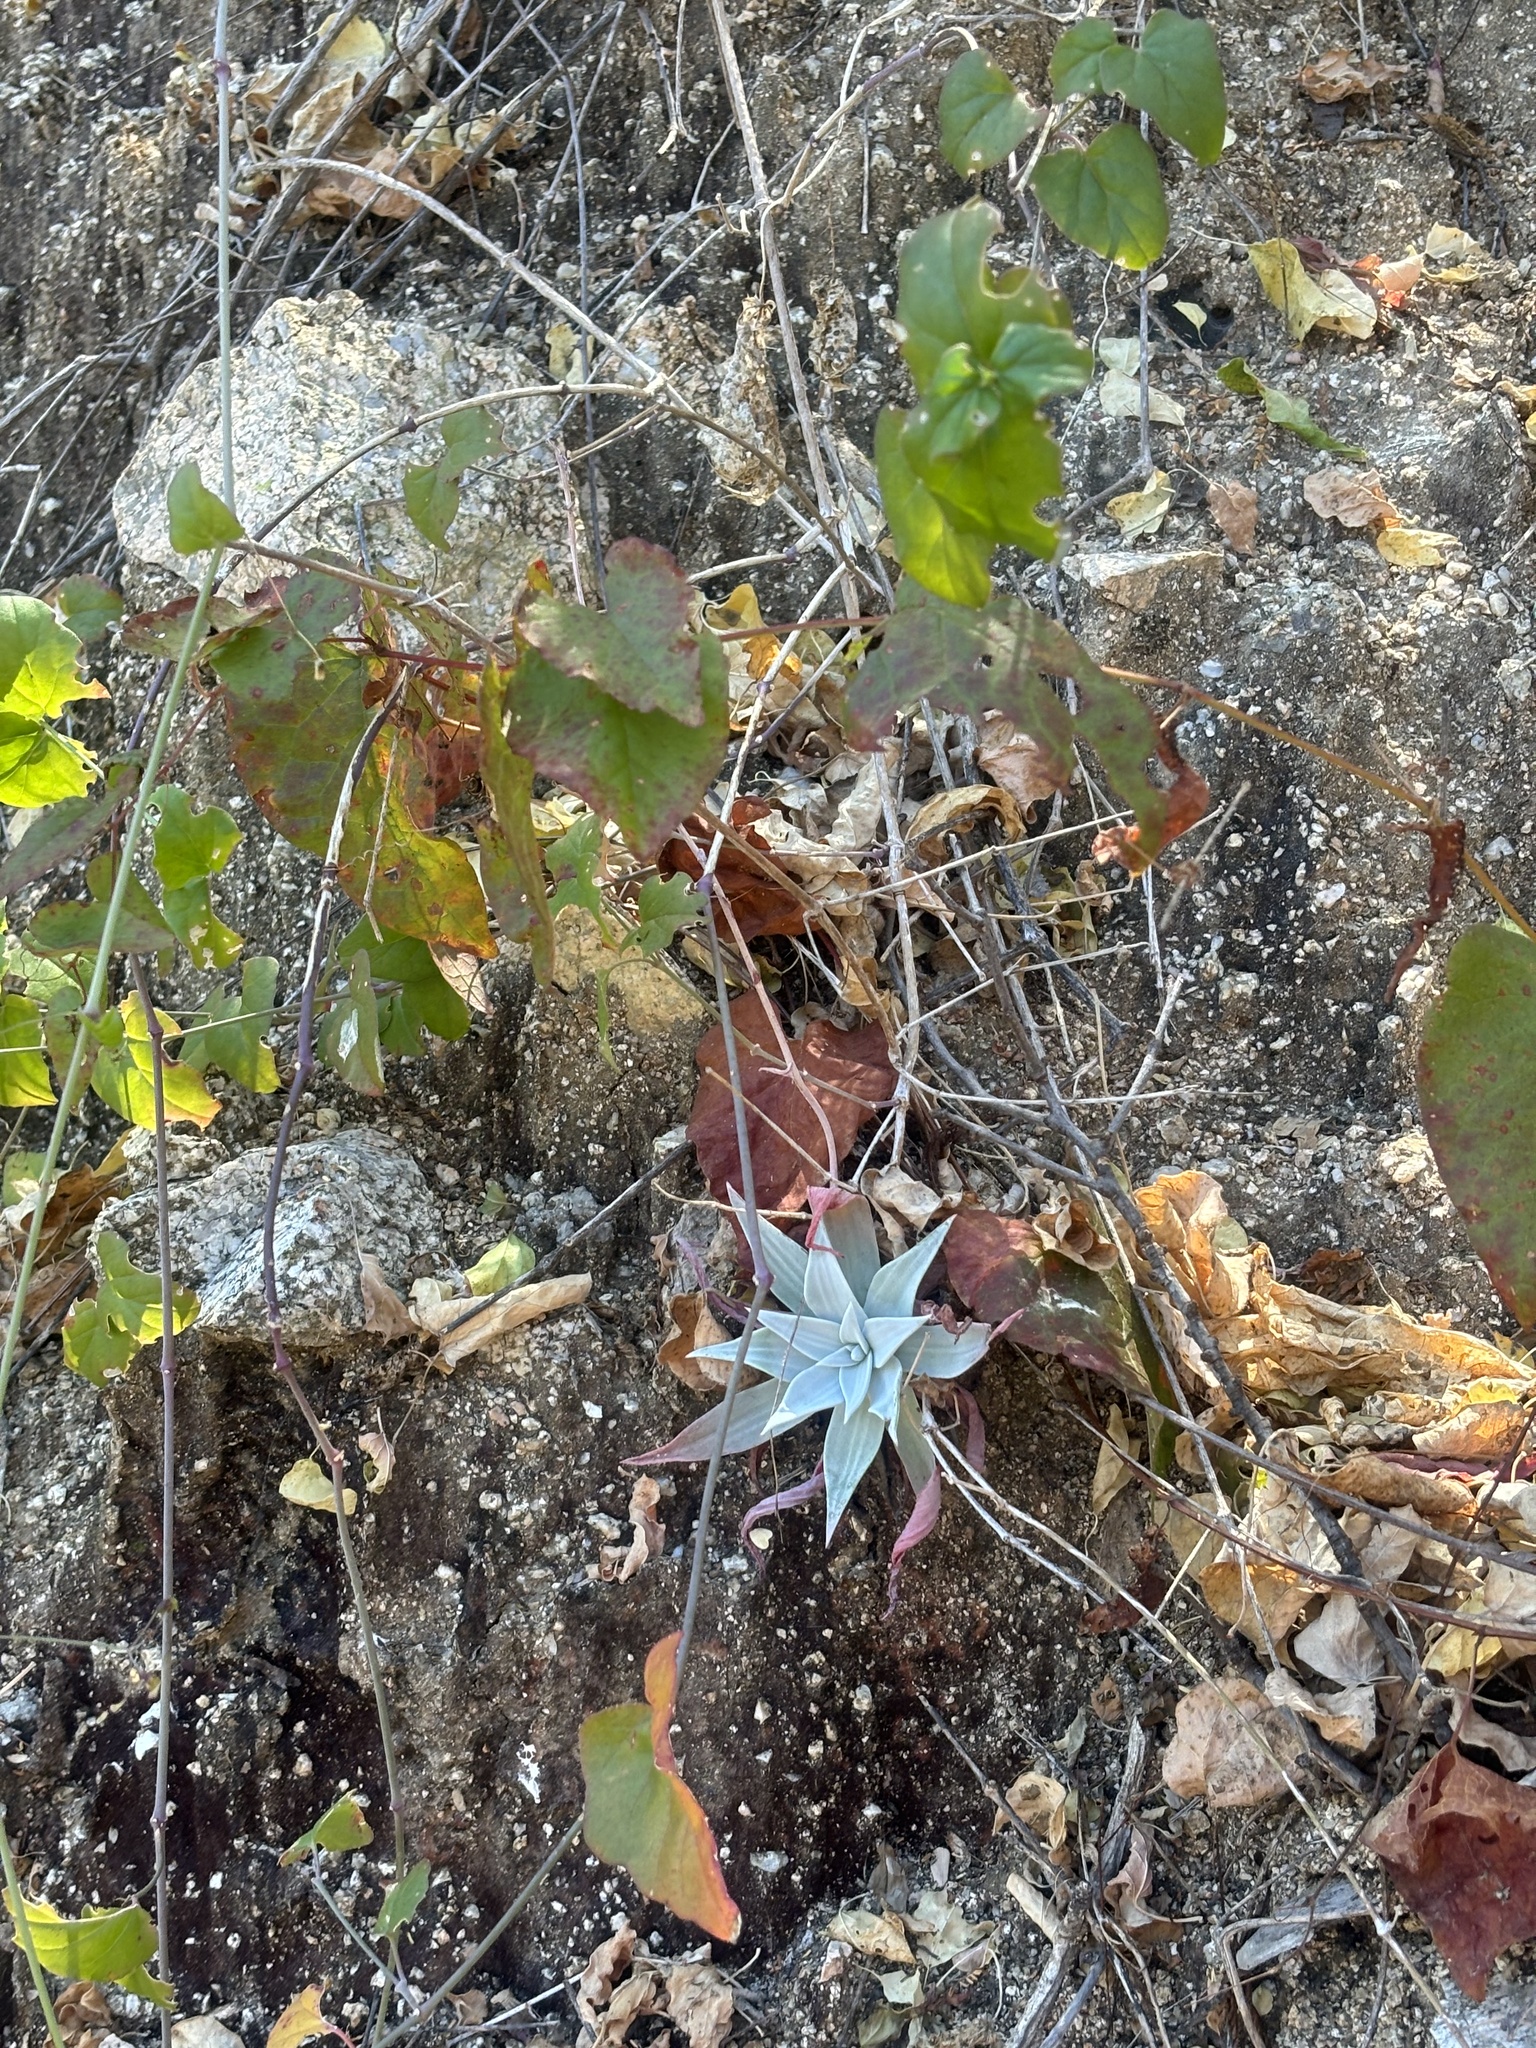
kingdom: Plantae
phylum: Tracheophyta
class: Magnoliopsida
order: Saxifragales
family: Crassulaceae
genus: Dudleya
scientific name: Dudleya nubigena
